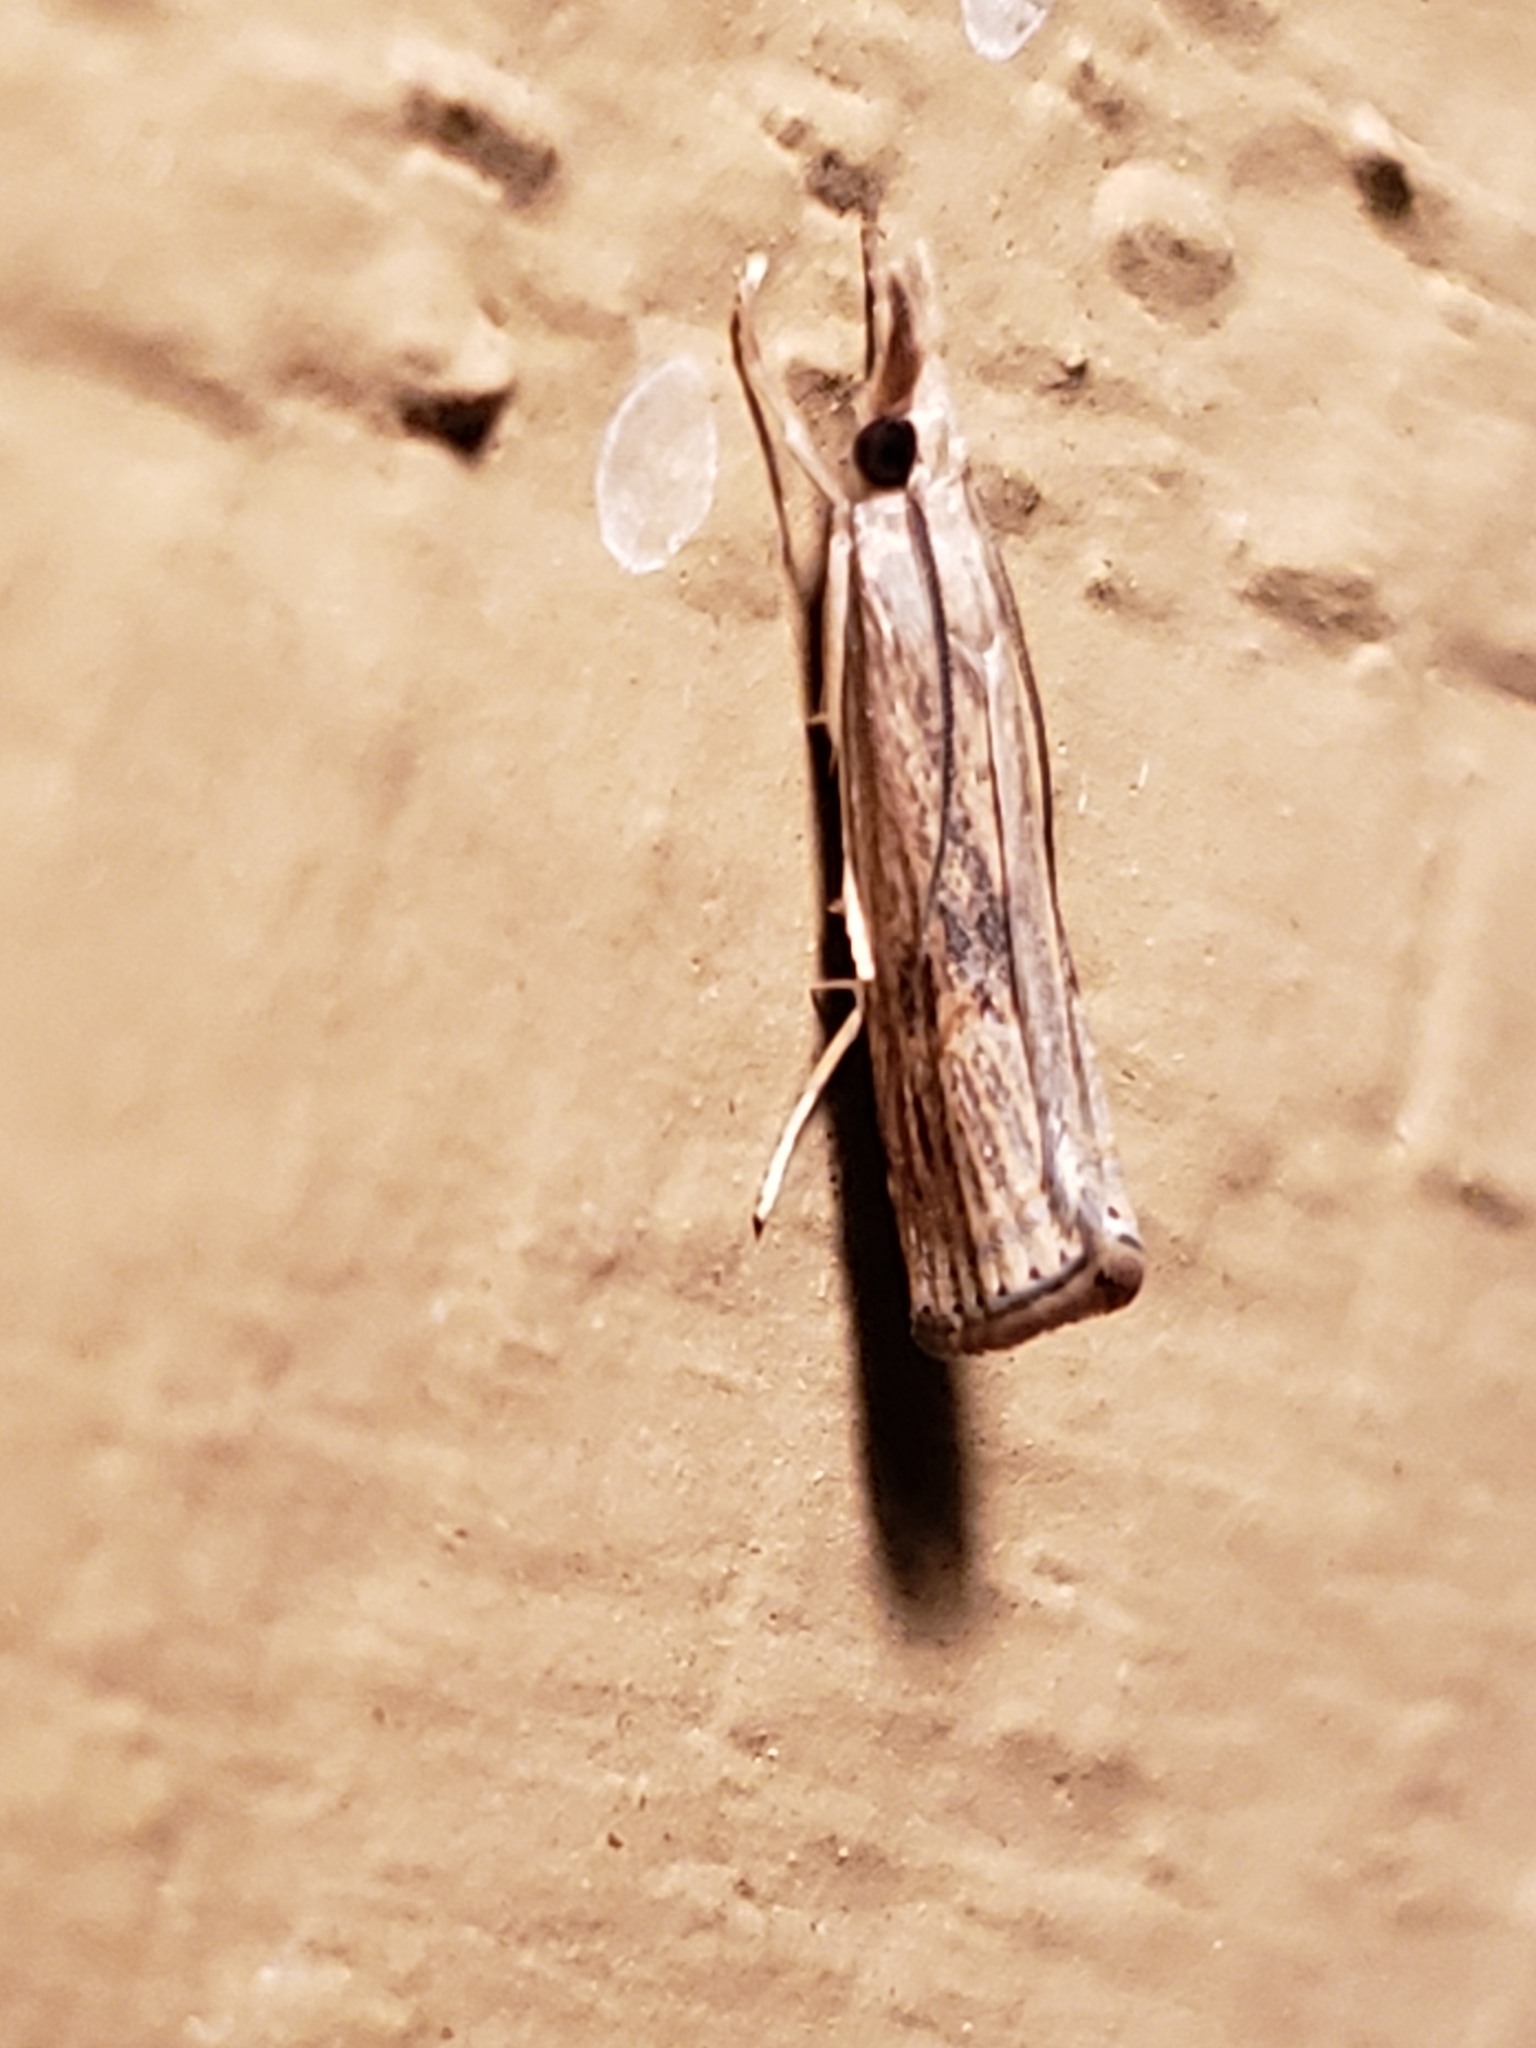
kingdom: Animalia
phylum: Arthropoda
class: Insecta
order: Lepidoptera
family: Crambidae
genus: Parapediasia
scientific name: Parapediasia teterellus
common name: Bluegrass webworm moth
